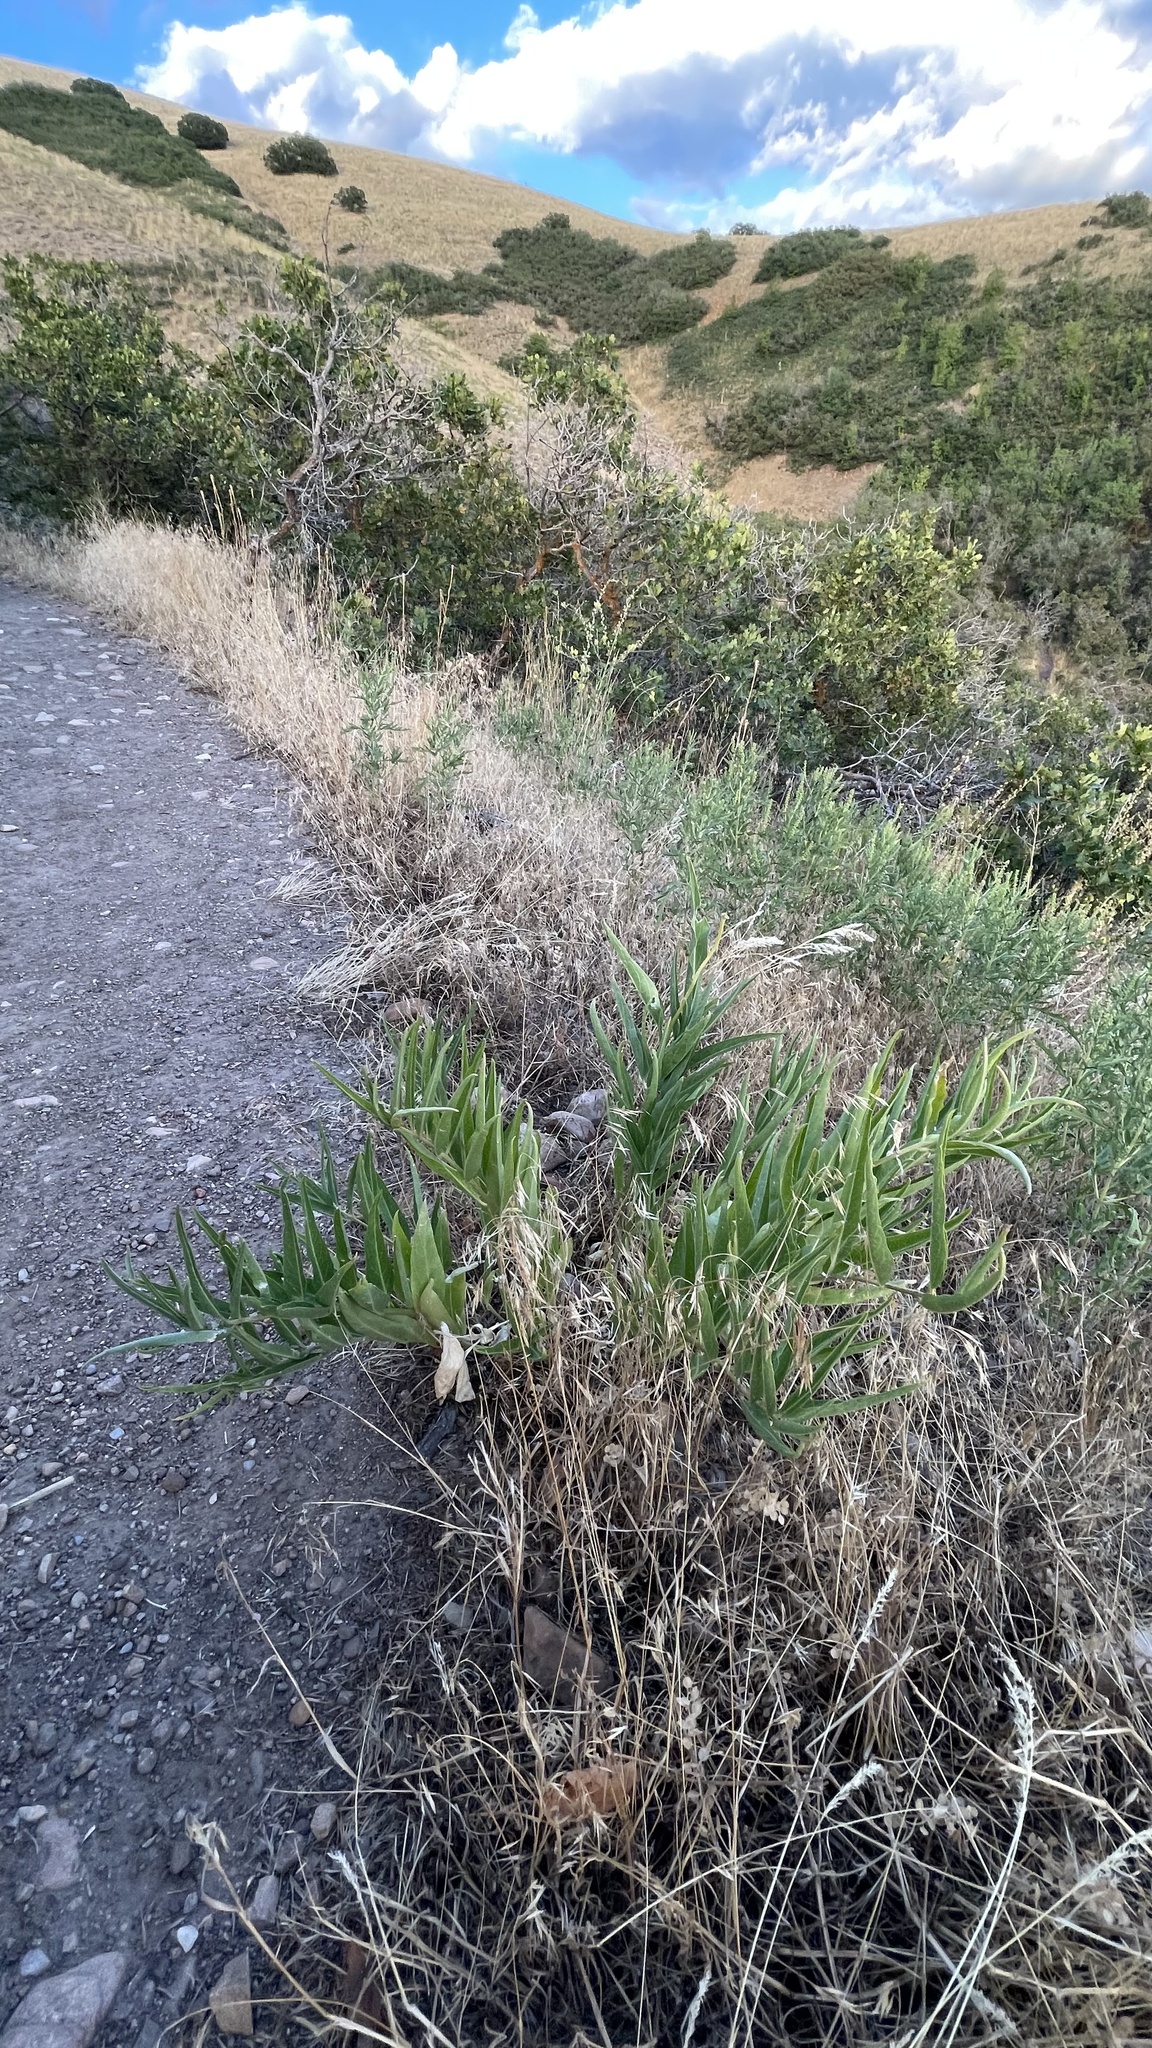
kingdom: Plantae
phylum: Tracheophyta
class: Magnoliopsida
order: Gentianales
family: Apocynaceae
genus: Asclepias
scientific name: Asclepias asperula
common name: Antelope horns
